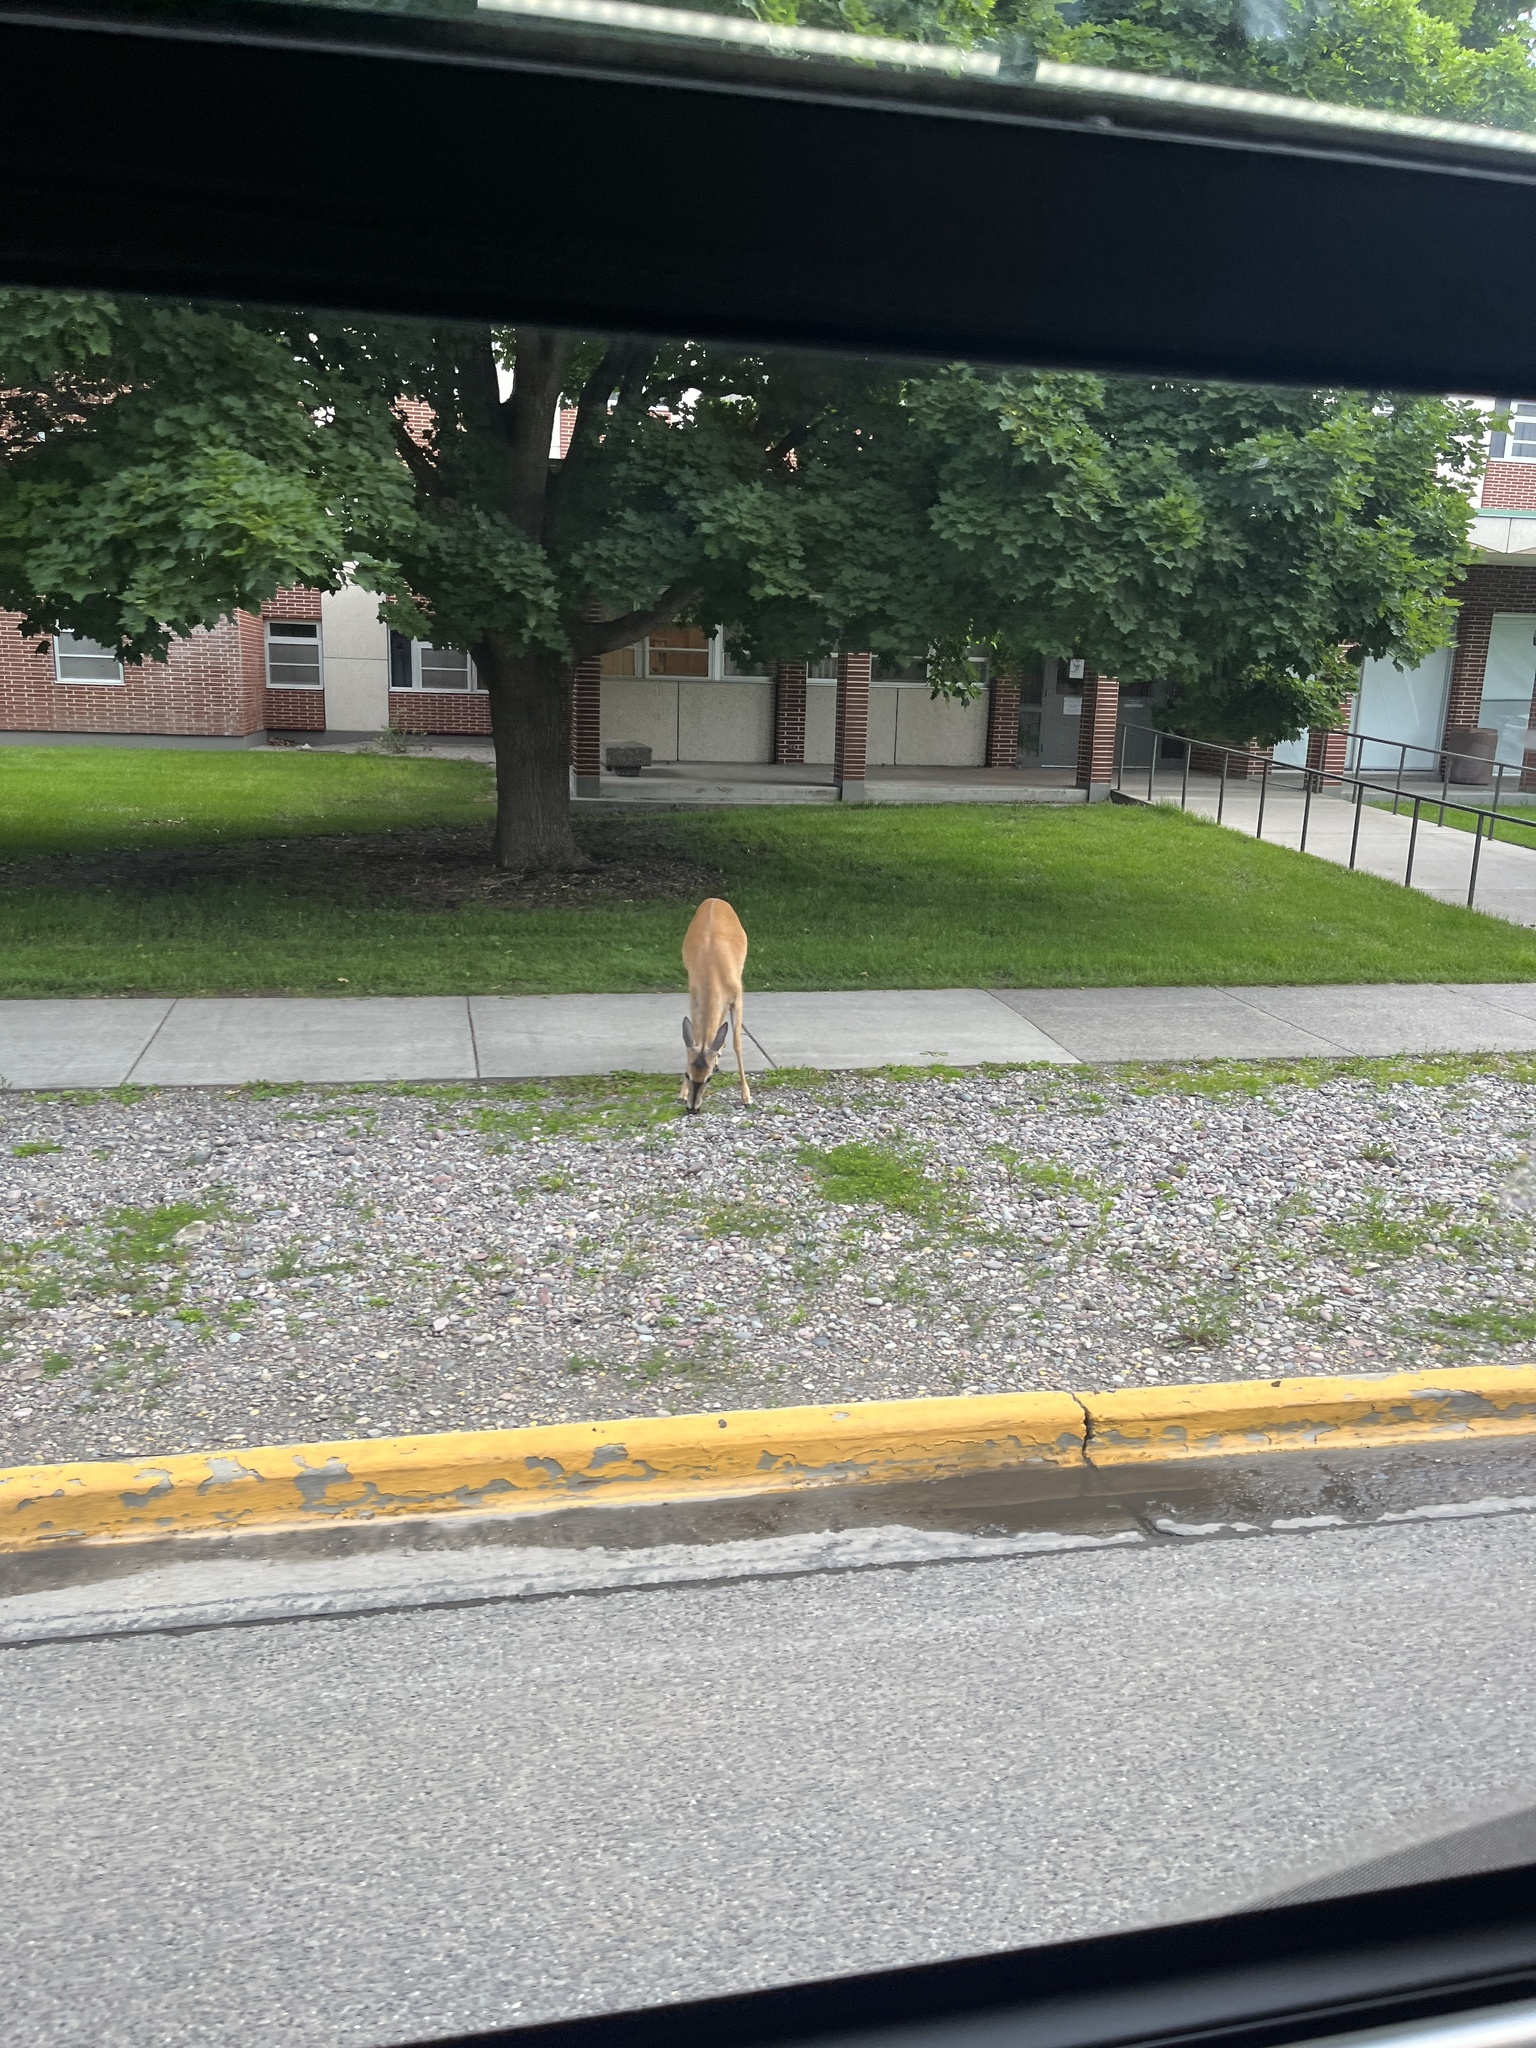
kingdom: Animalia
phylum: Chordata
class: Mammalia
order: Artiodactyla
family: Cervidae
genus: Odocoileus
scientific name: Odocoileus virginianus
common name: White-tailed deer
